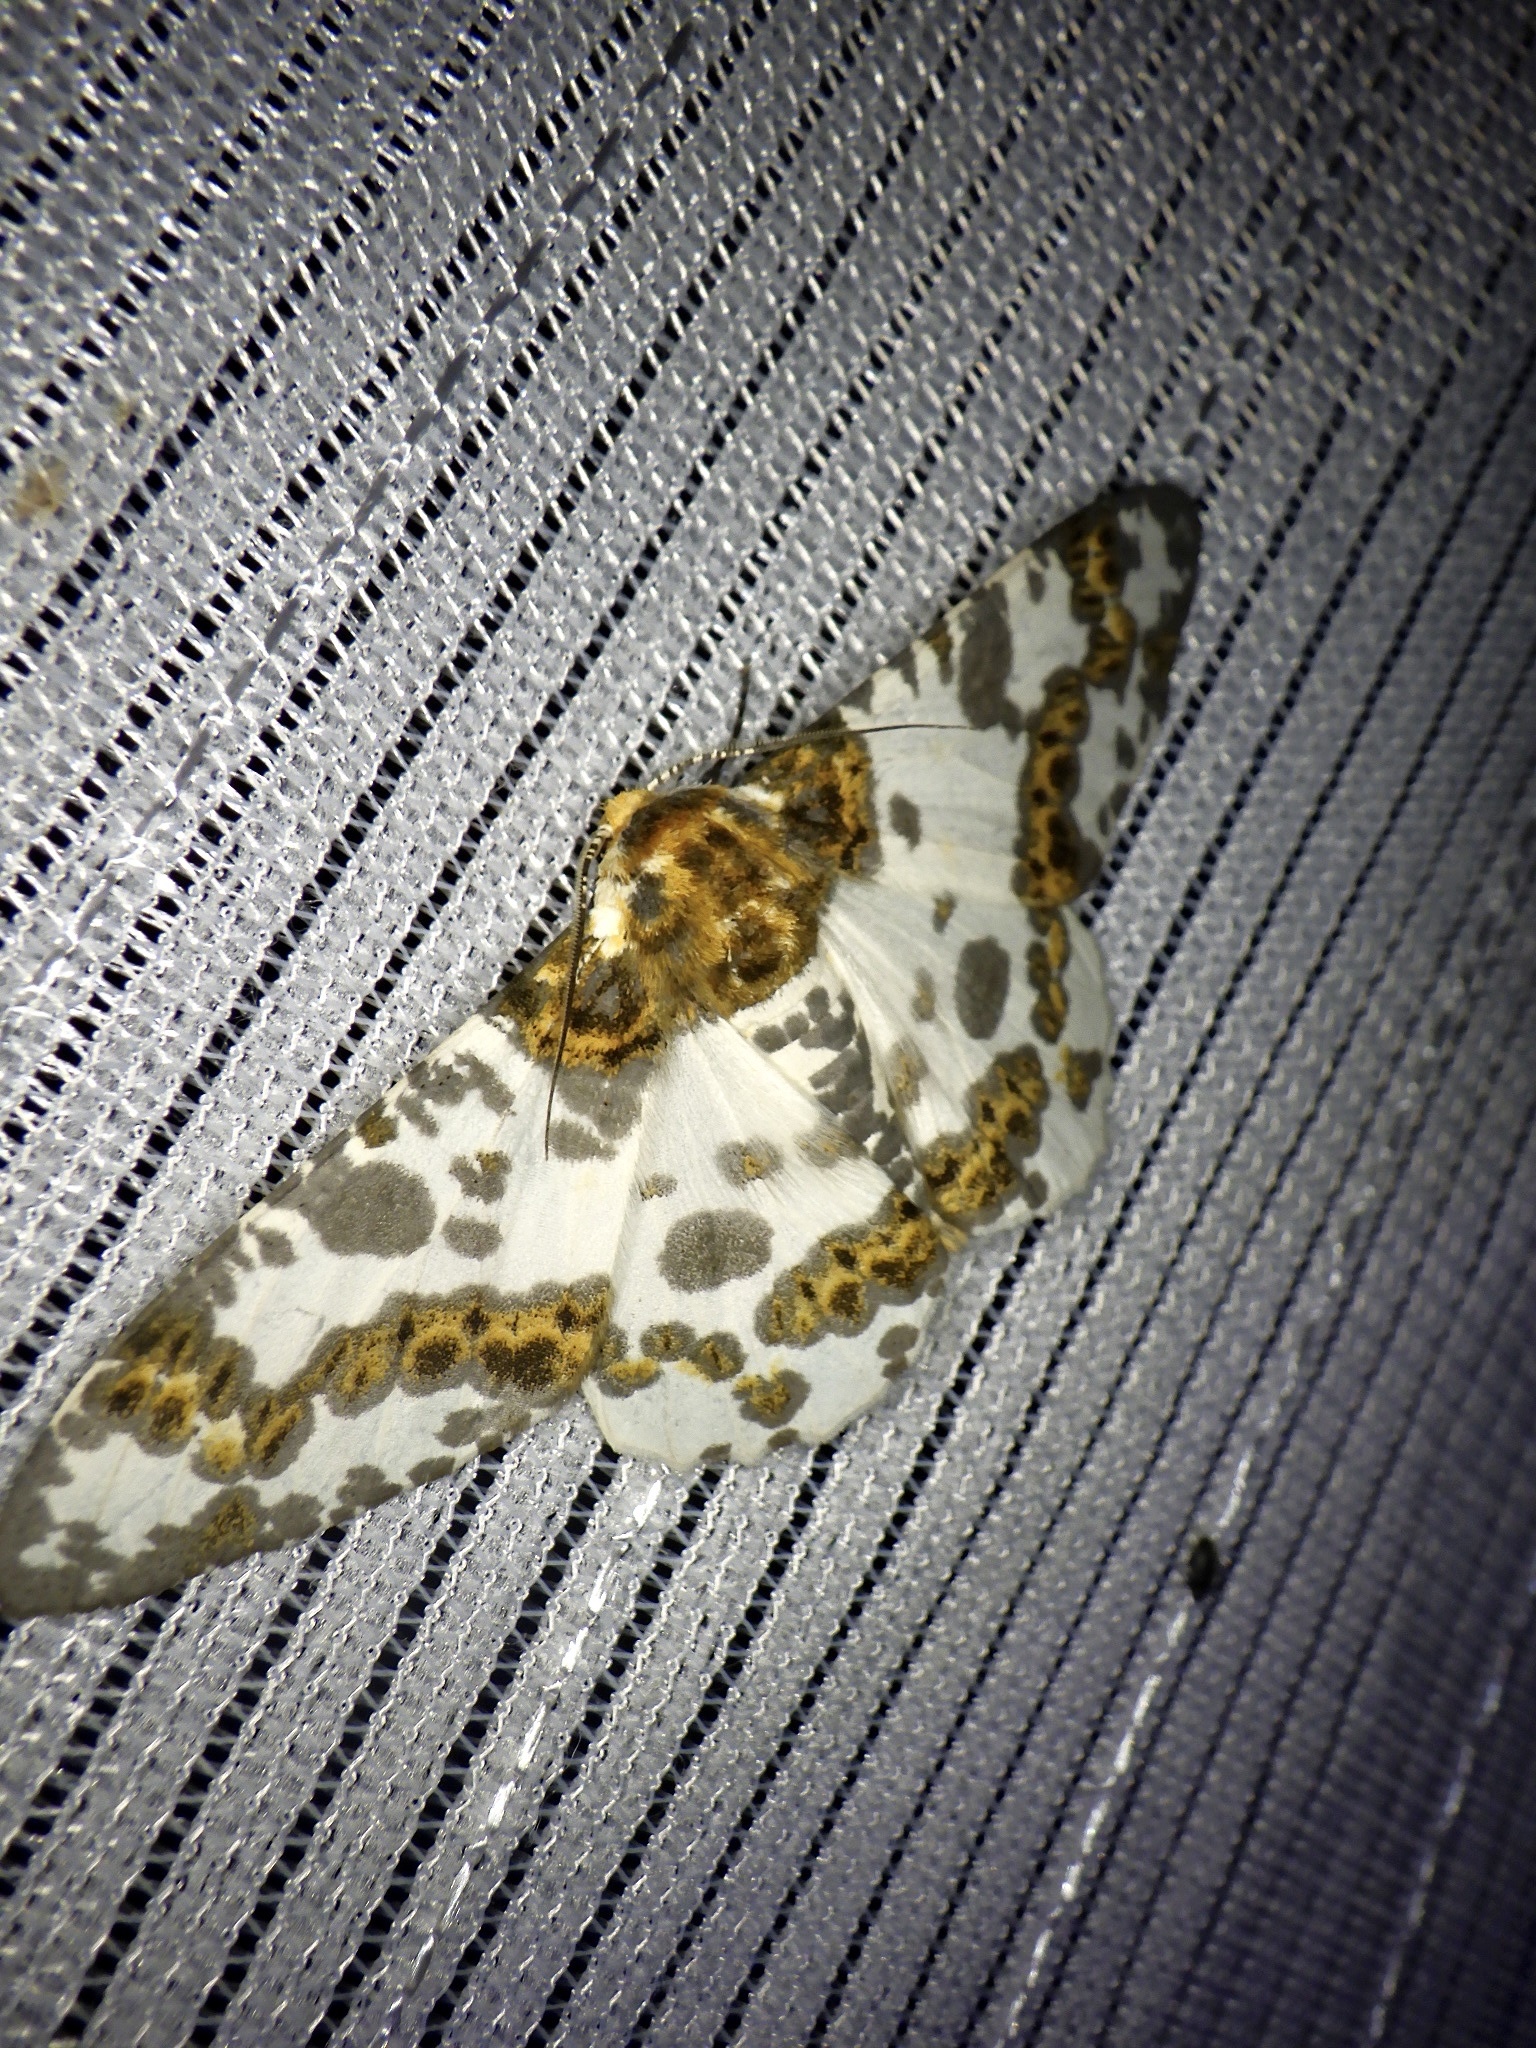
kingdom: Animalia
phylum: Arthropoda
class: Insecta
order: Lepidoptera
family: Geometridae
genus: Biston
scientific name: Biston panterinaria
